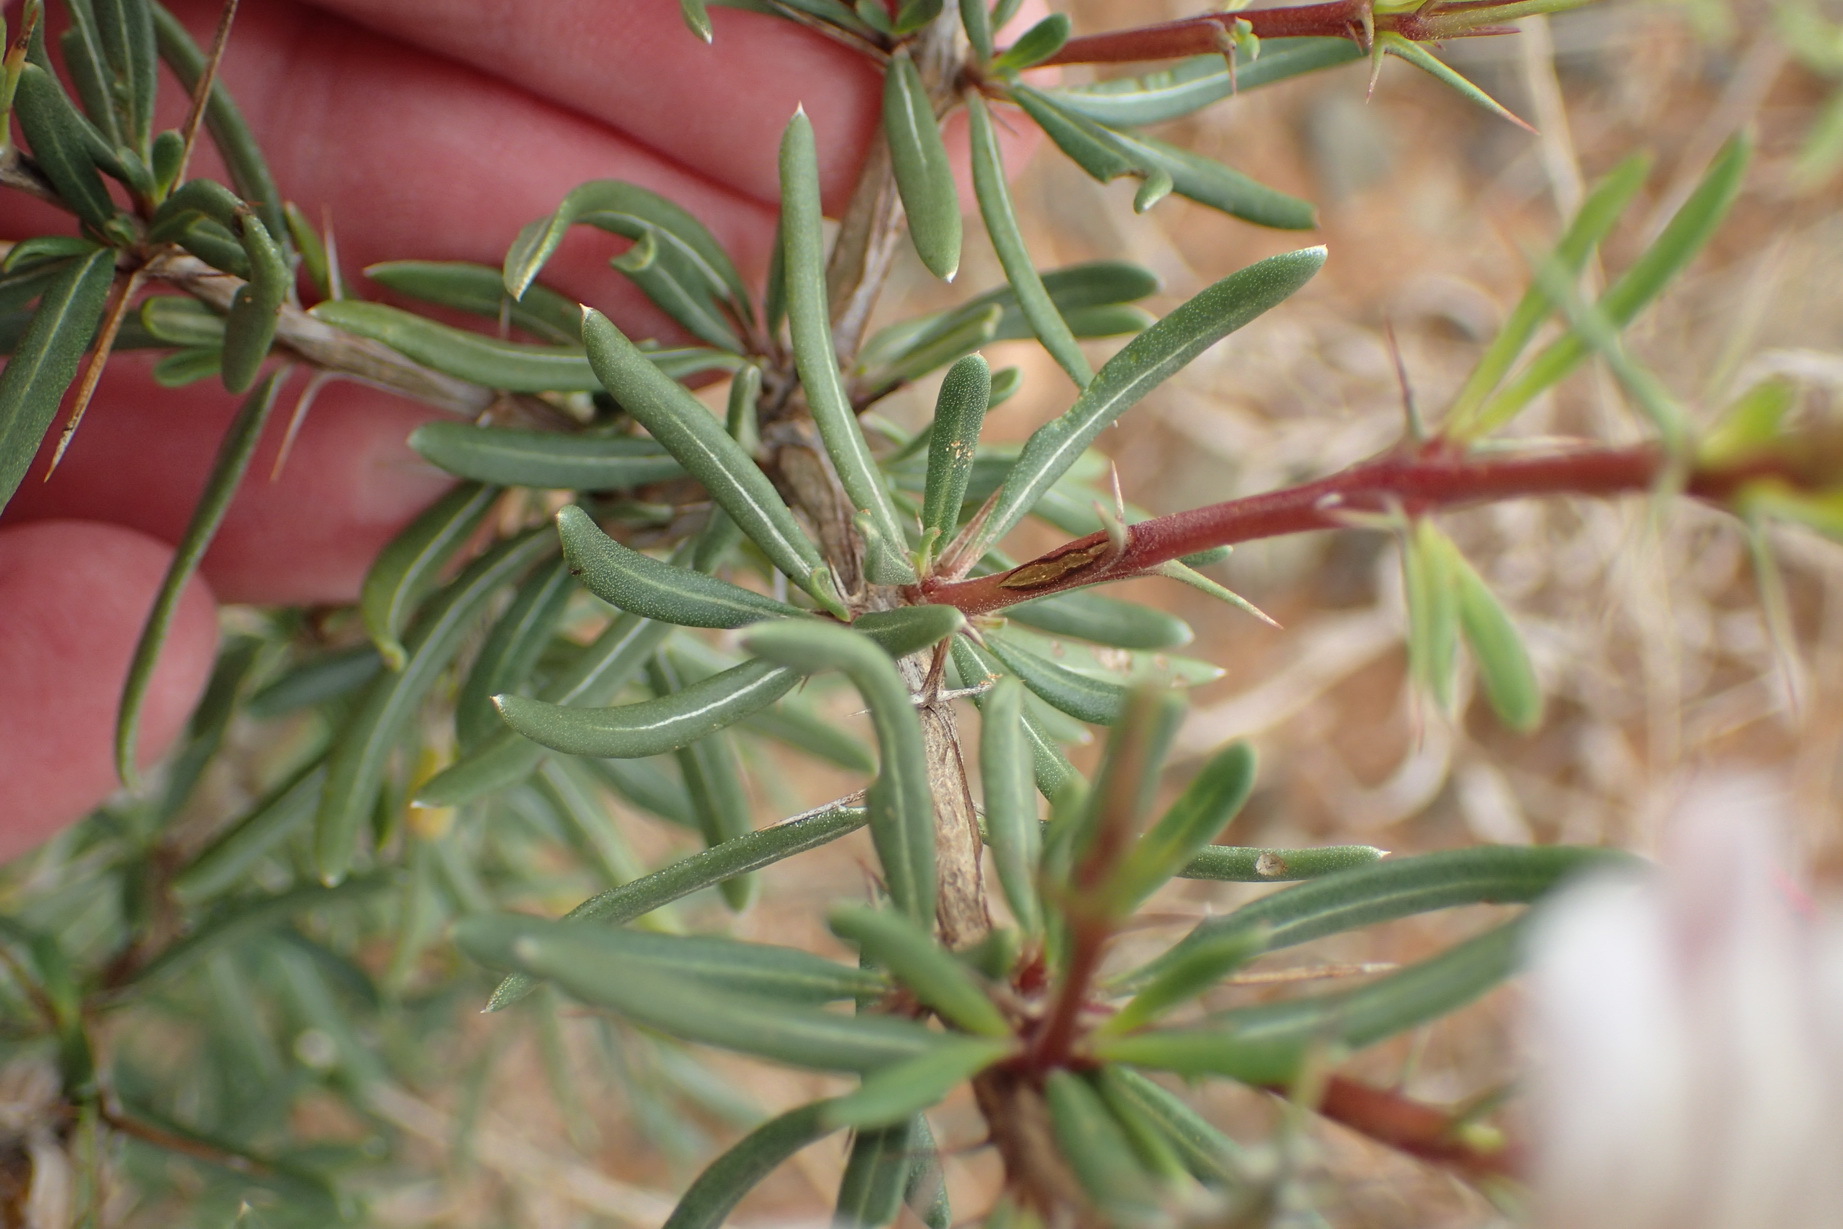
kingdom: Plantae
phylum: Tracheophyta
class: Magnoliopsida
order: Lamiales
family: Acanthaceae
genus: Blepharis
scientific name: Blepharis capensis
